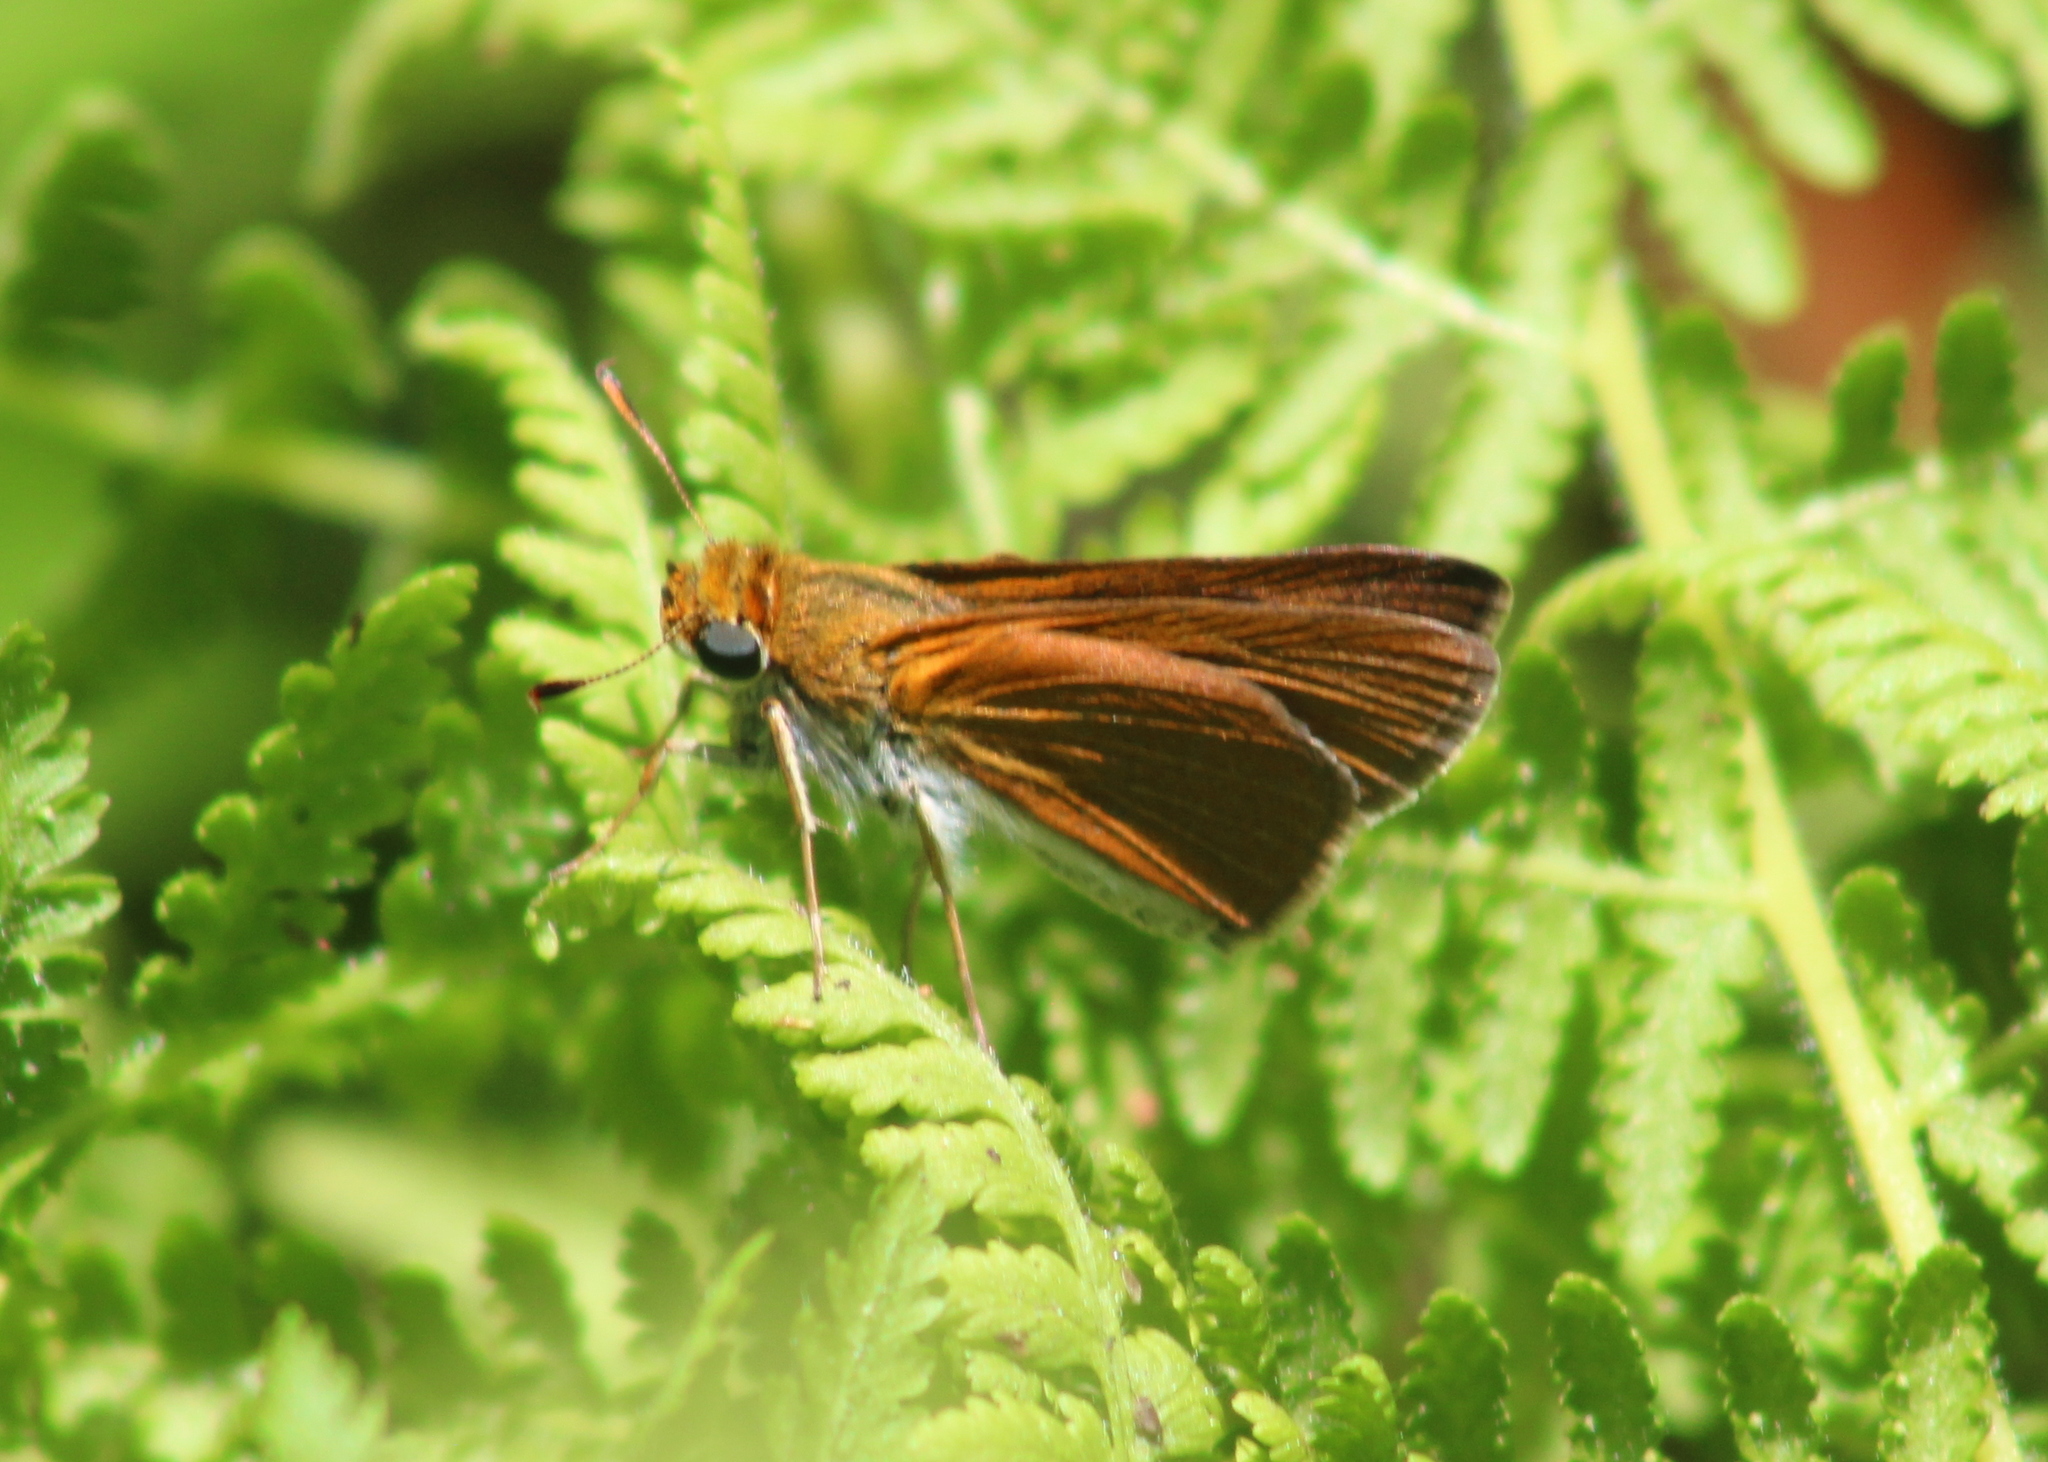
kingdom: Animalia
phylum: Arthropoda
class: Insecta
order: Lepidoptera
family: Hesperiidae
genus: Euphyes
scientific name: Euphyes bimacula
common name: Two-spotted skipper
